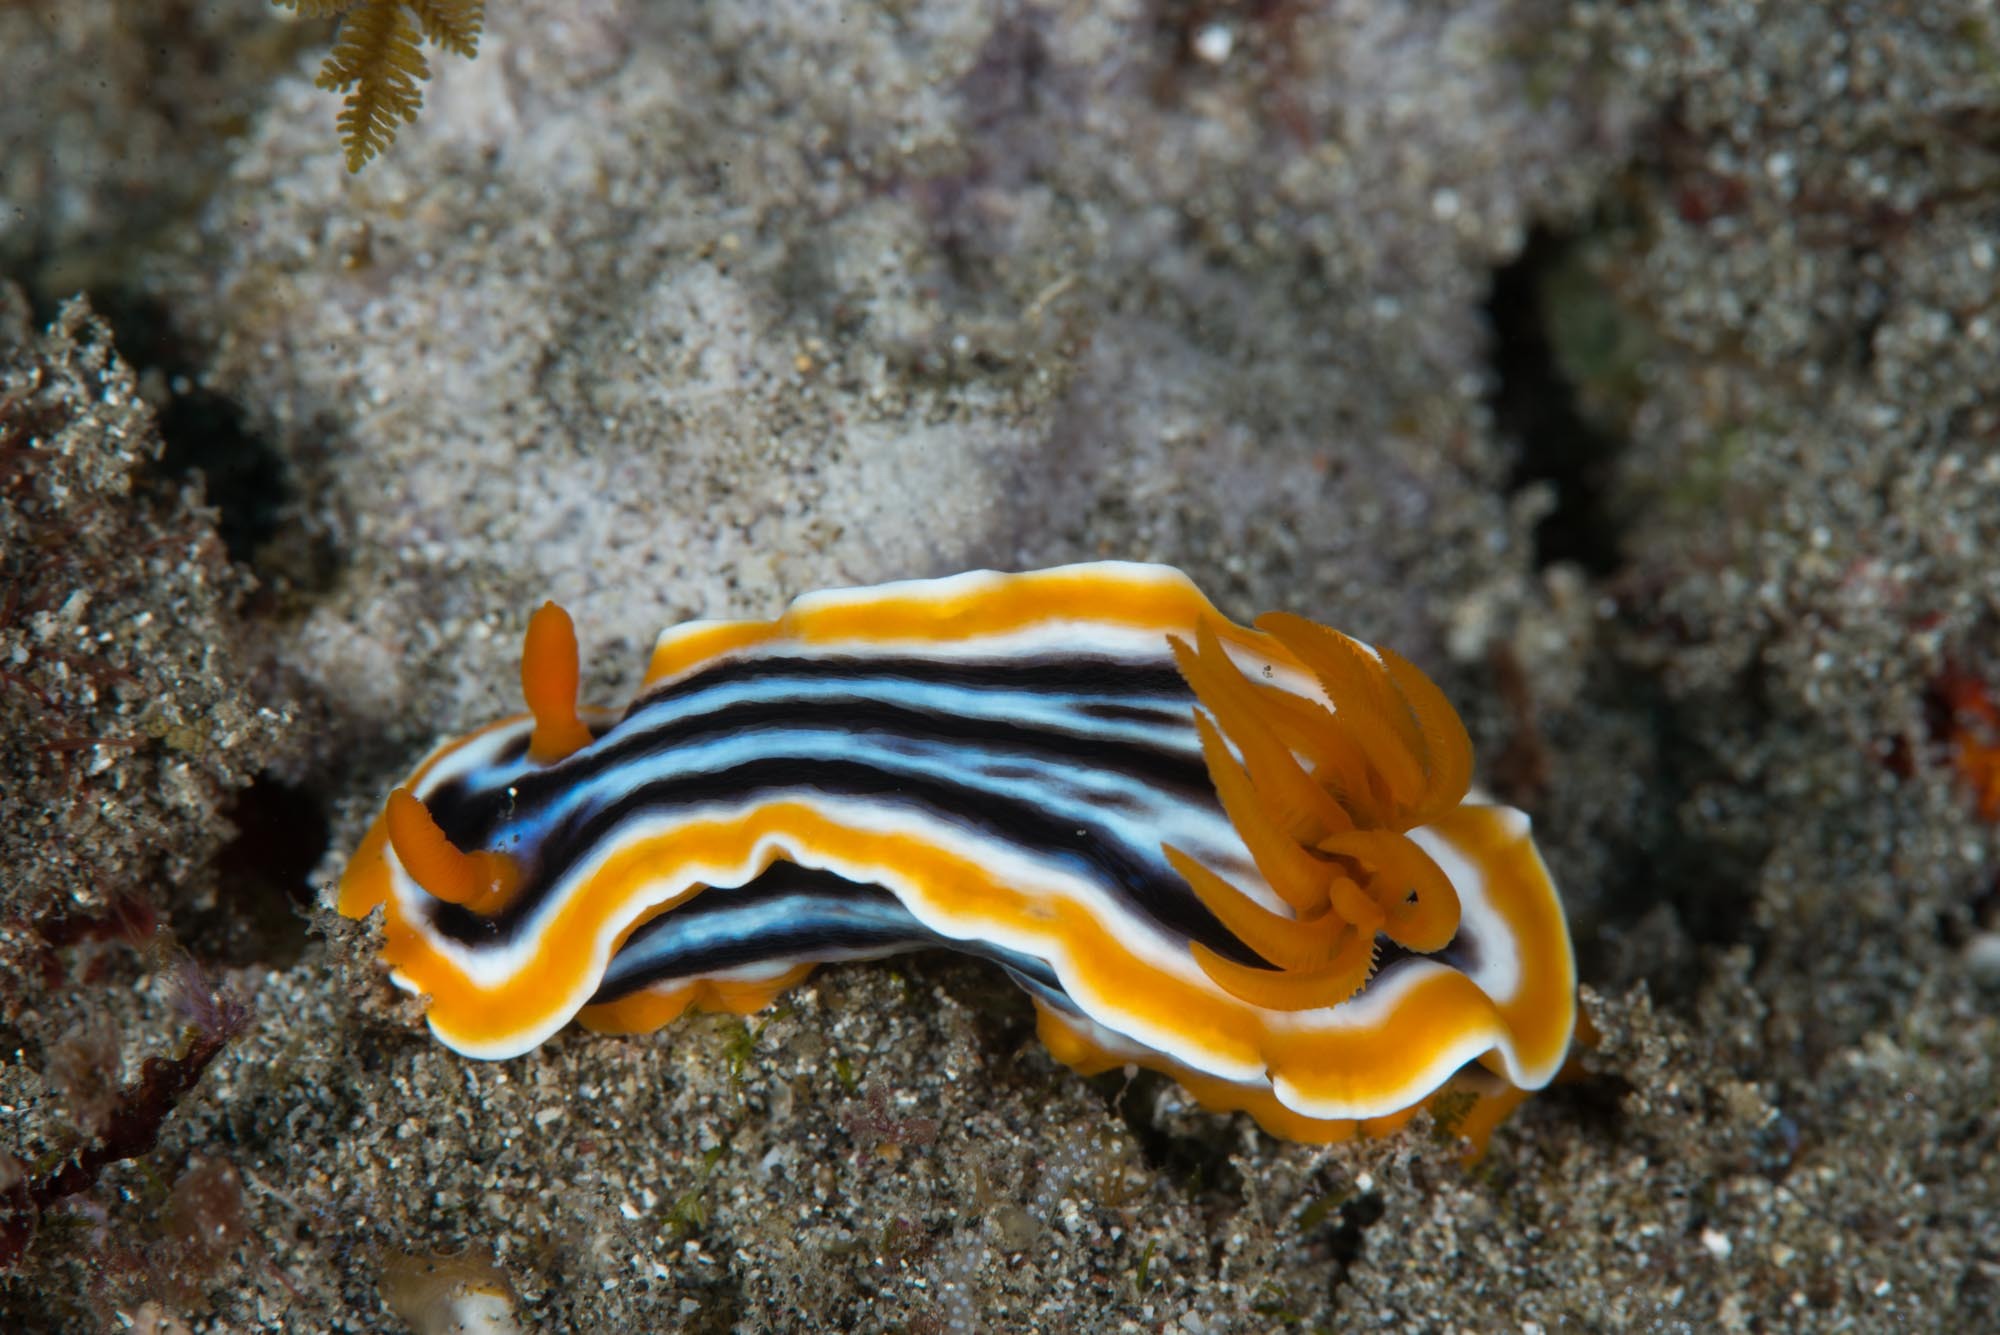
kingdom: Animalia
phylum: Mollusca
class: Gastropoda
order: Nudibranchia
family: Chromodorididae
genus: Chromodoris
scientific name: Chromodoris magnifica
